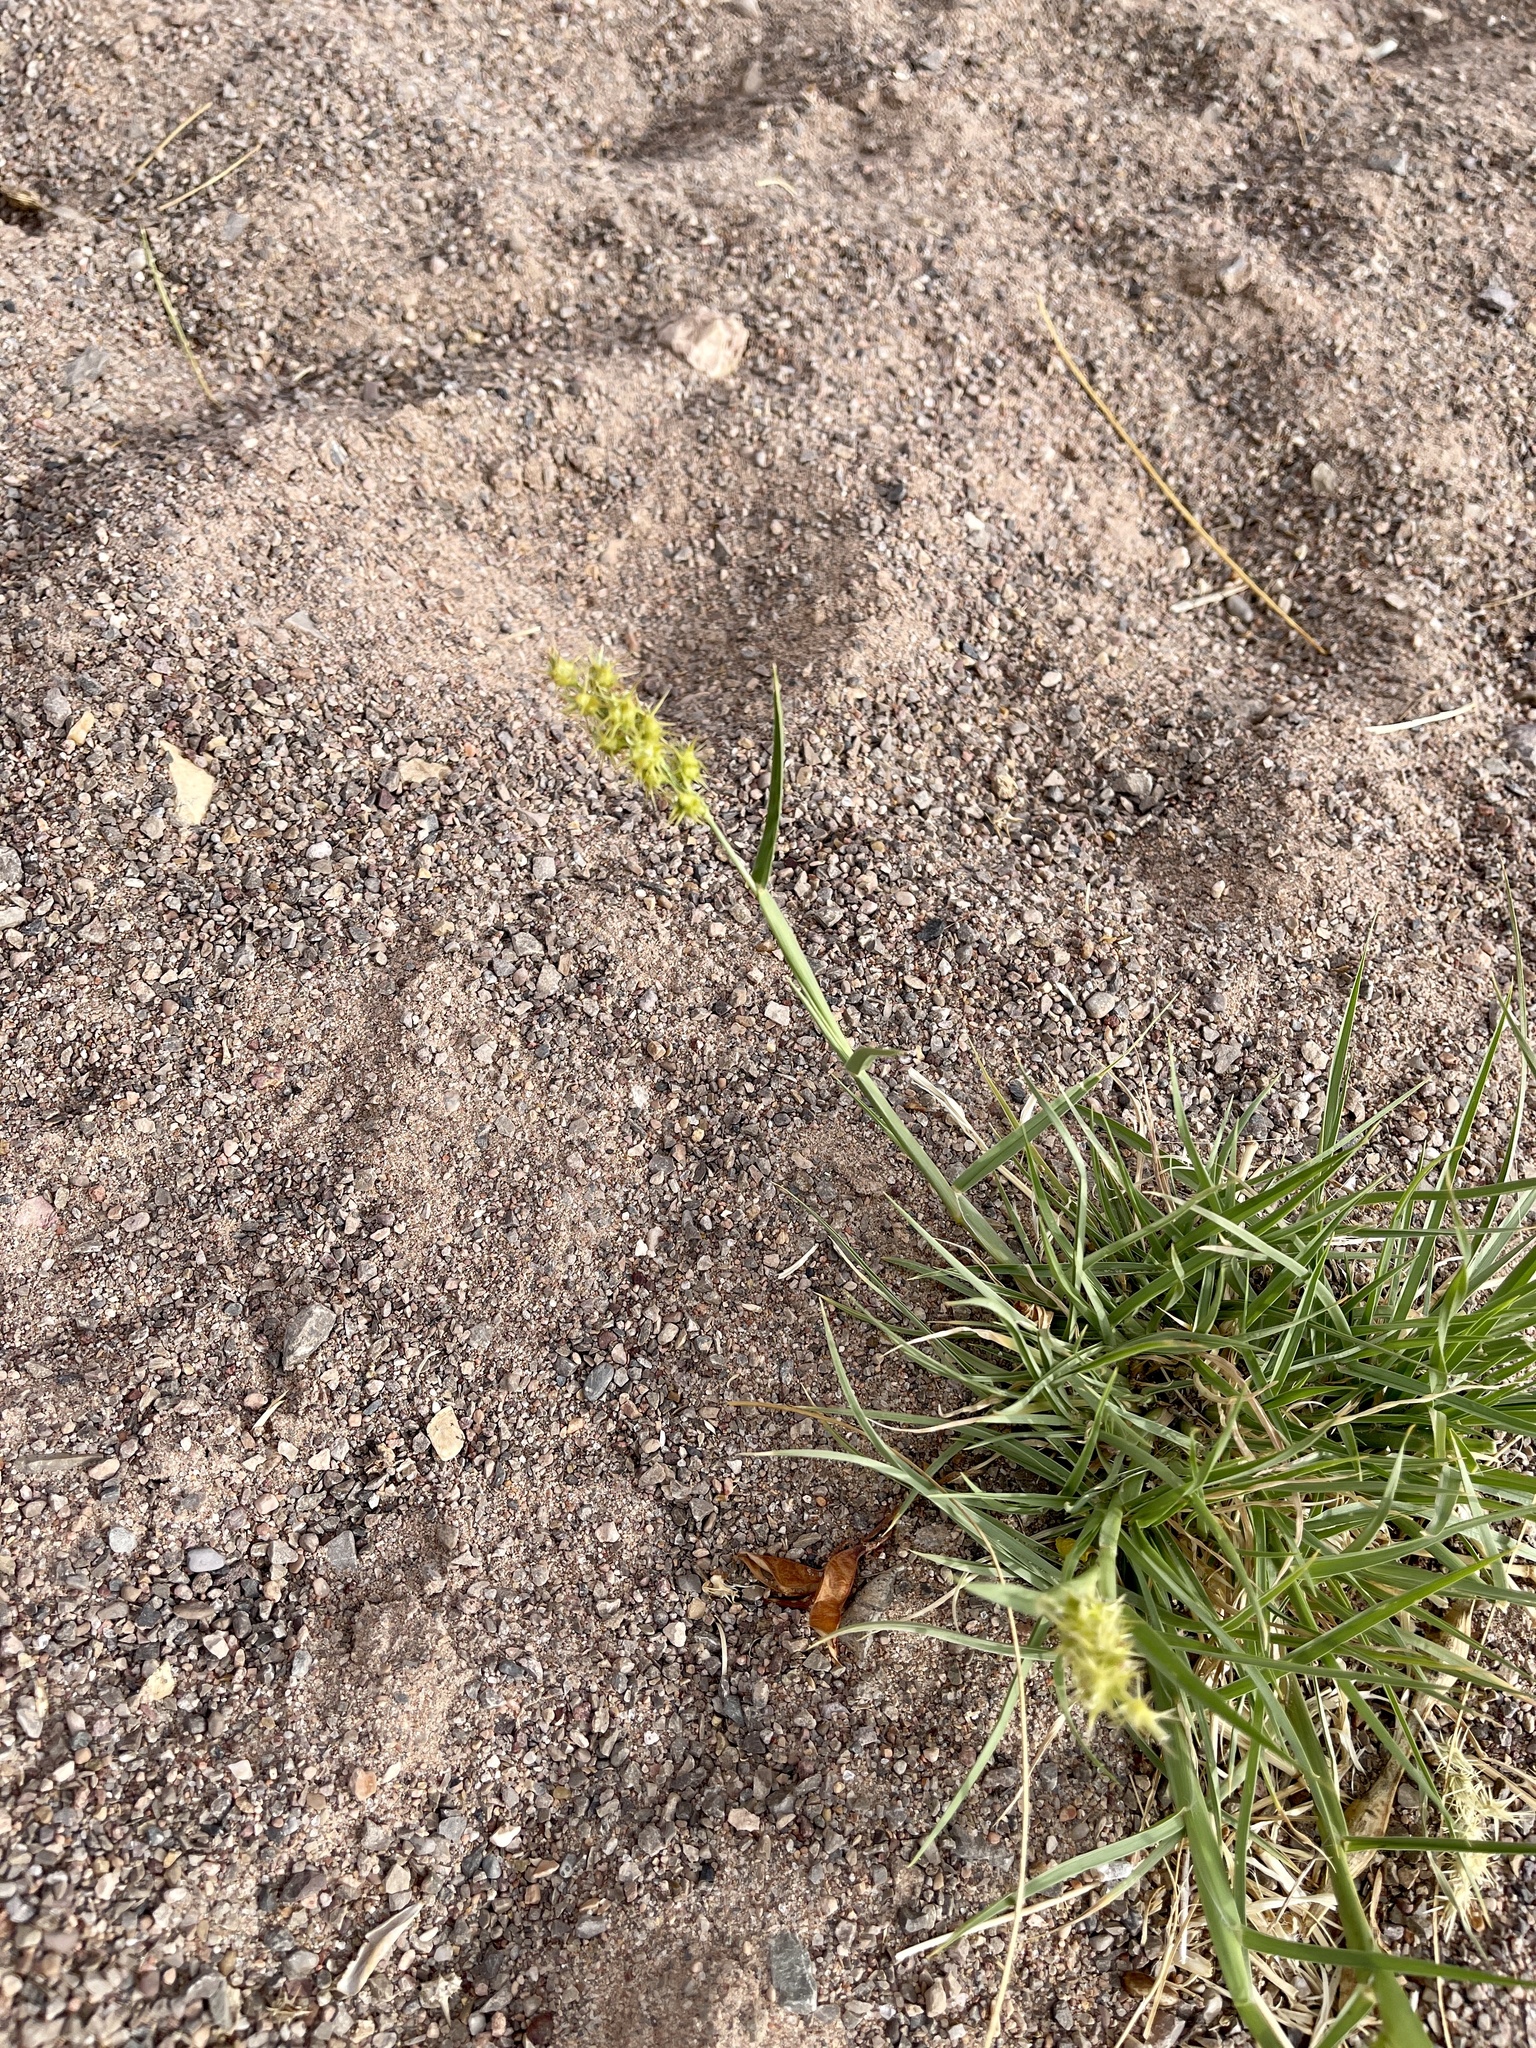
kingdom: Plantae
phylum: Tracheophyta
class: Liliopsida
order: Poales
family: Poaceae
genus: Cenchrus
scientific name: Cenchrus spinifex
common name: Coast sandbur
